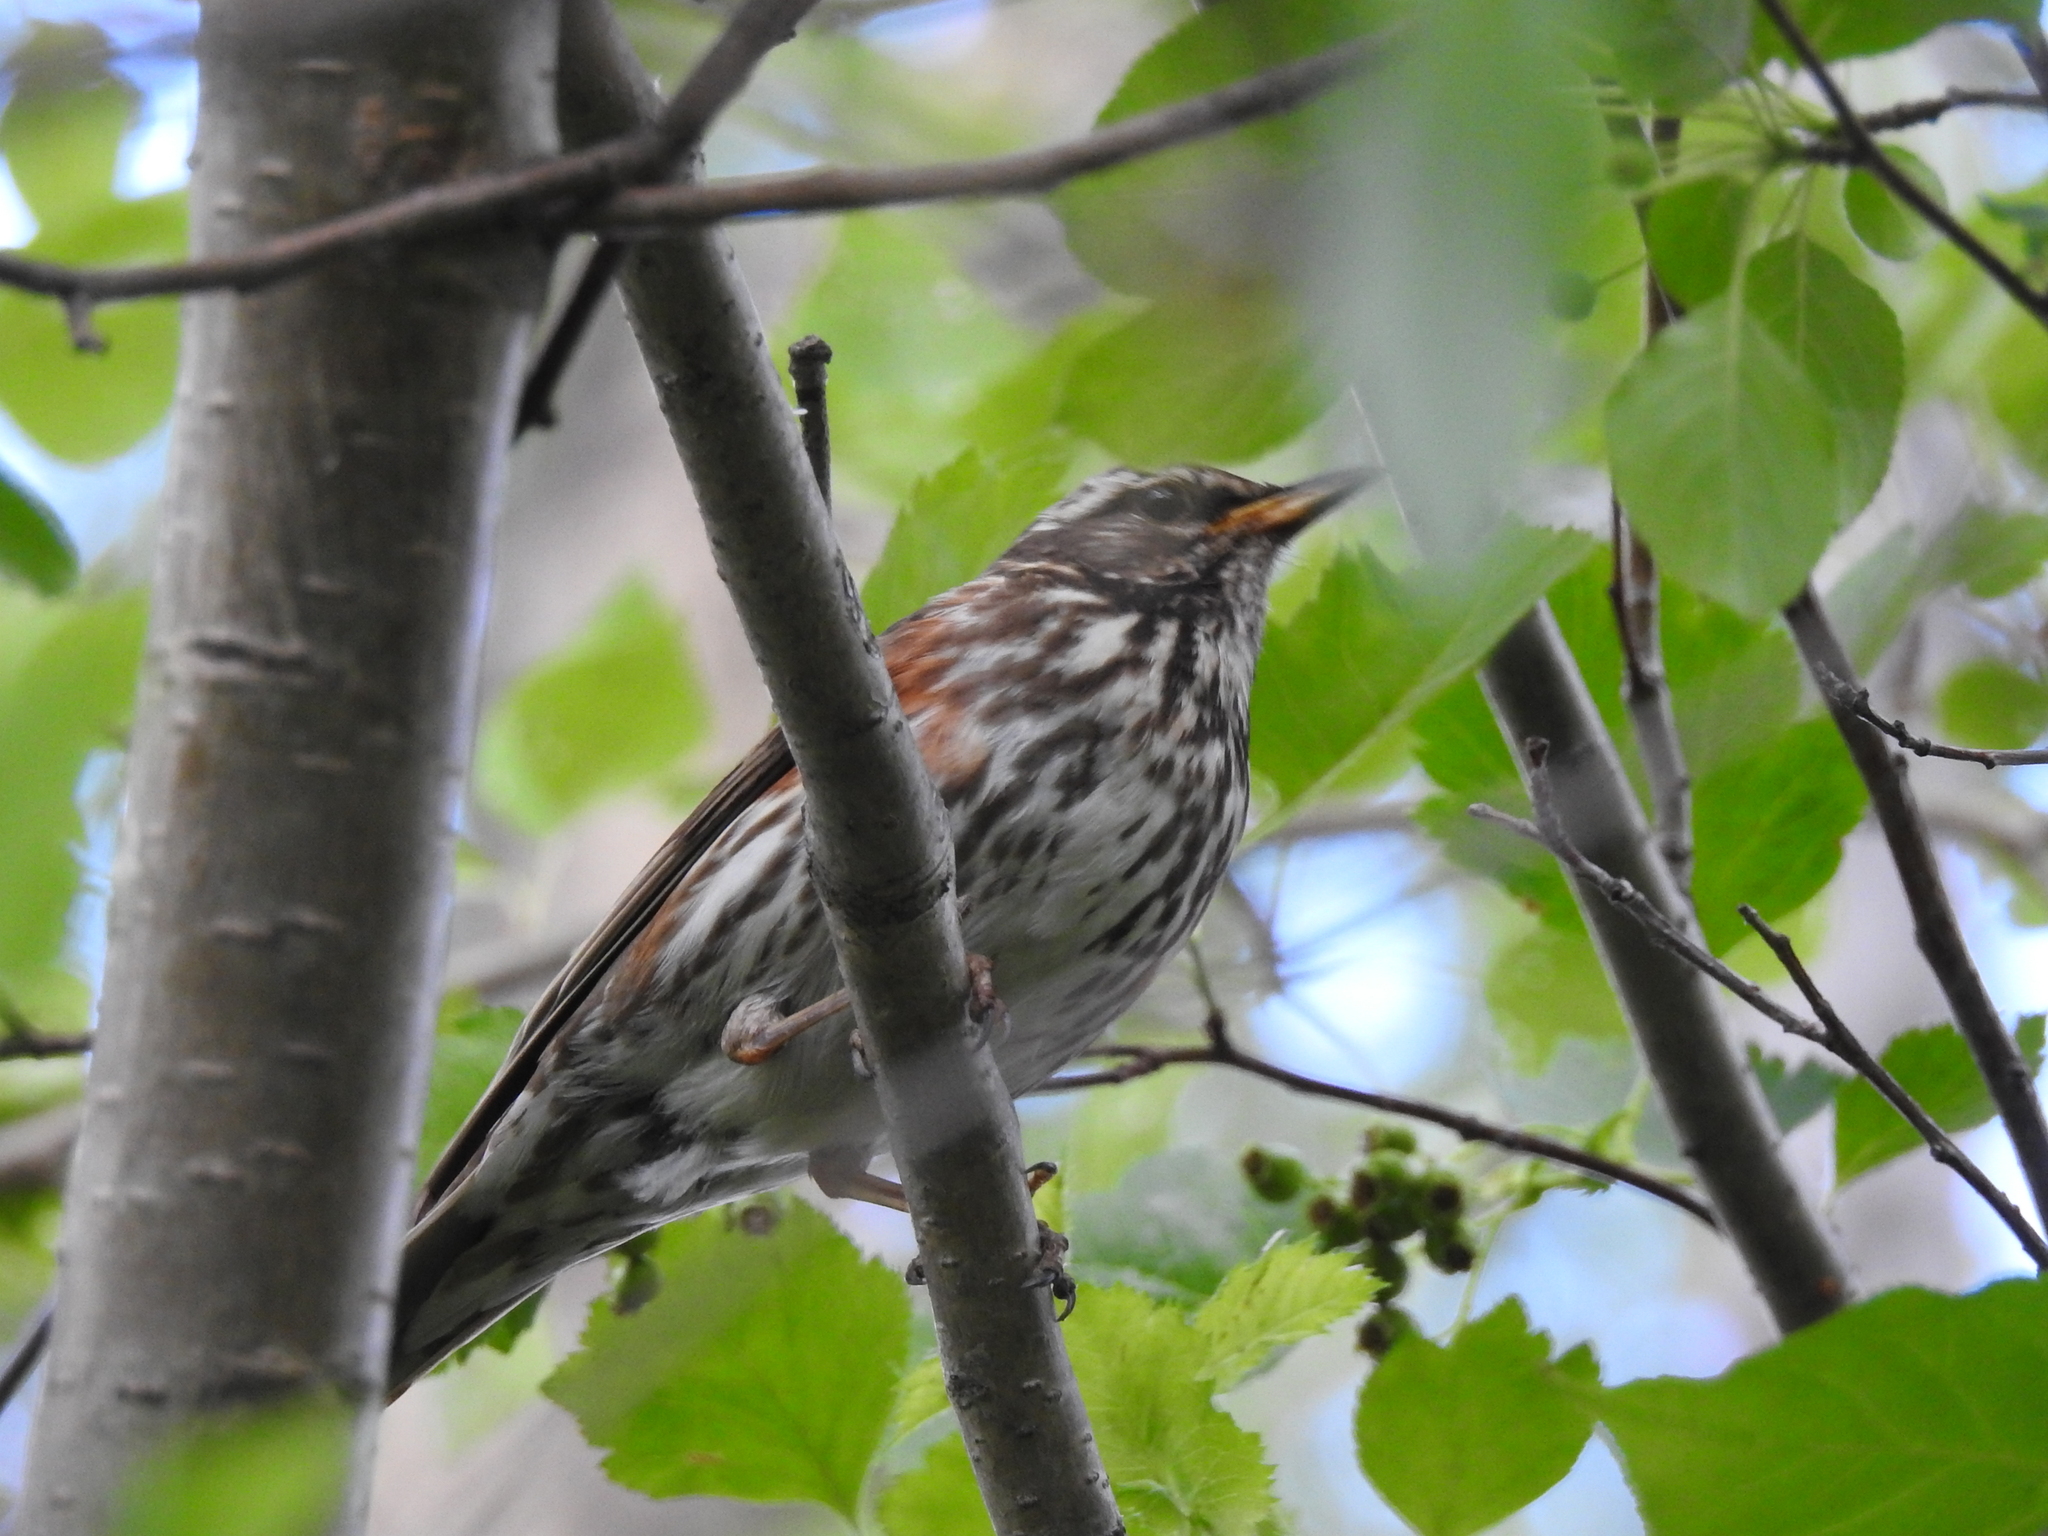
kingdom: Animalia
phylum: Chordata
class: Aves
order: Passeriformes
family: Turdidae
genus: Turdus
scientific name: Turdus iliacus
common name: Redwing
